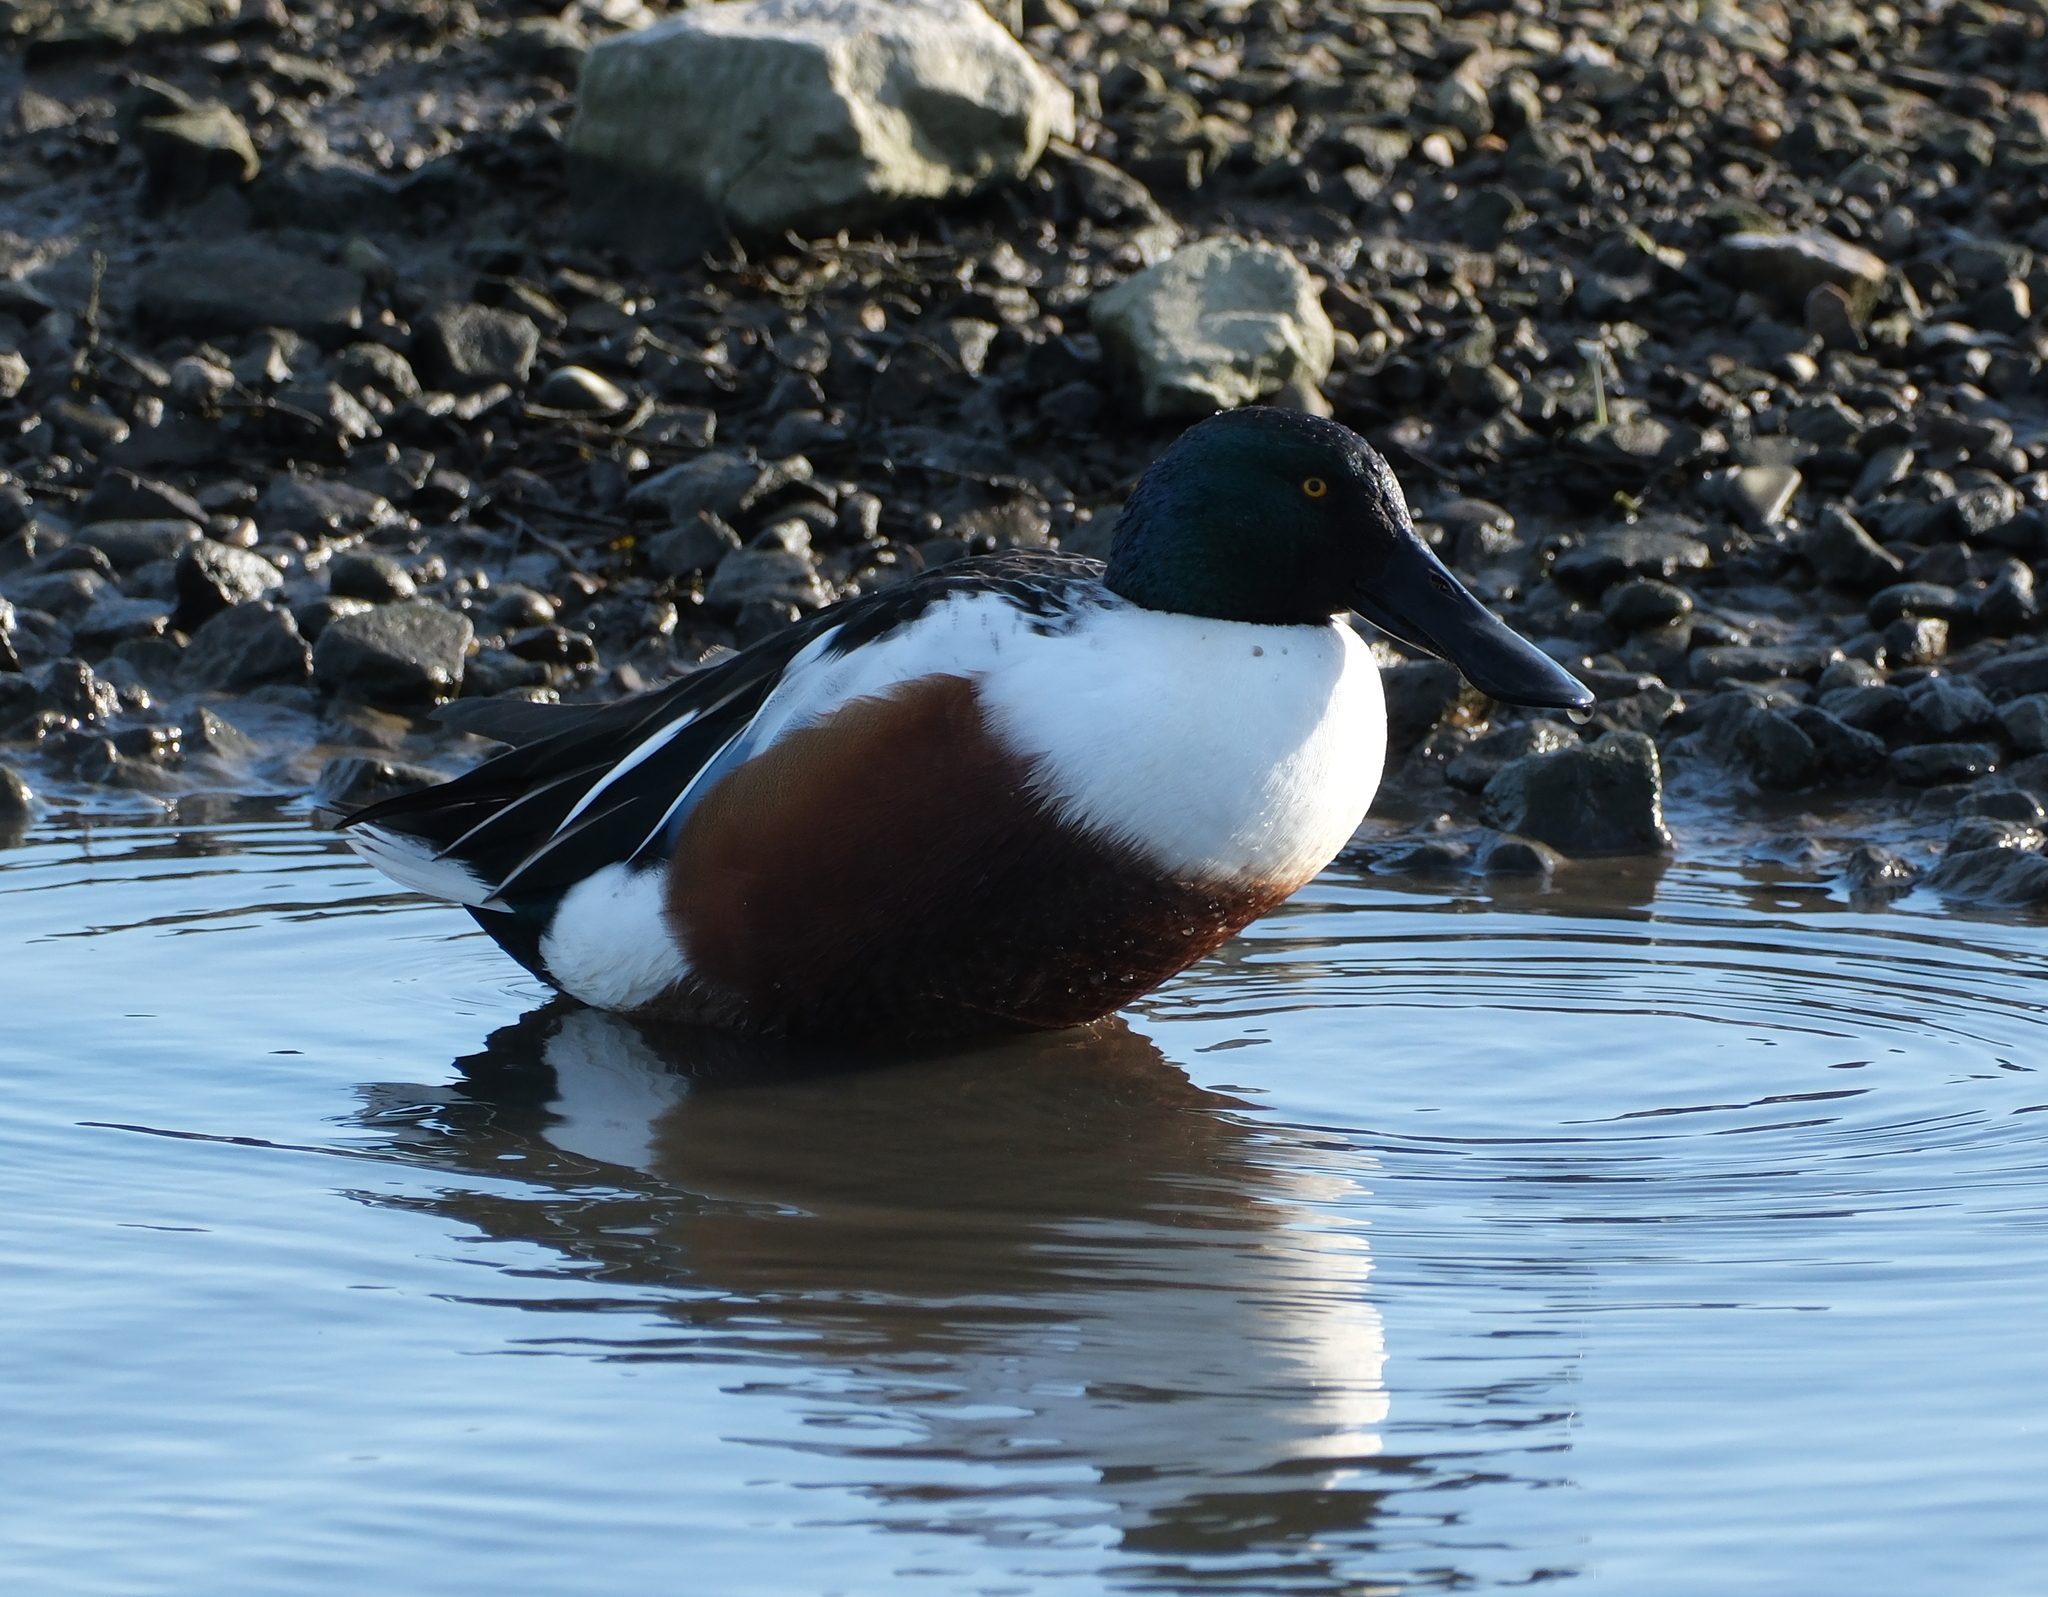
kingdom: Animalia
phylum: Chordata
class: Aves
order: Anseriformes
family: Anatidae
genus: Spatula
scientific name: Spatula clypeata
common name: Northern shoveler
